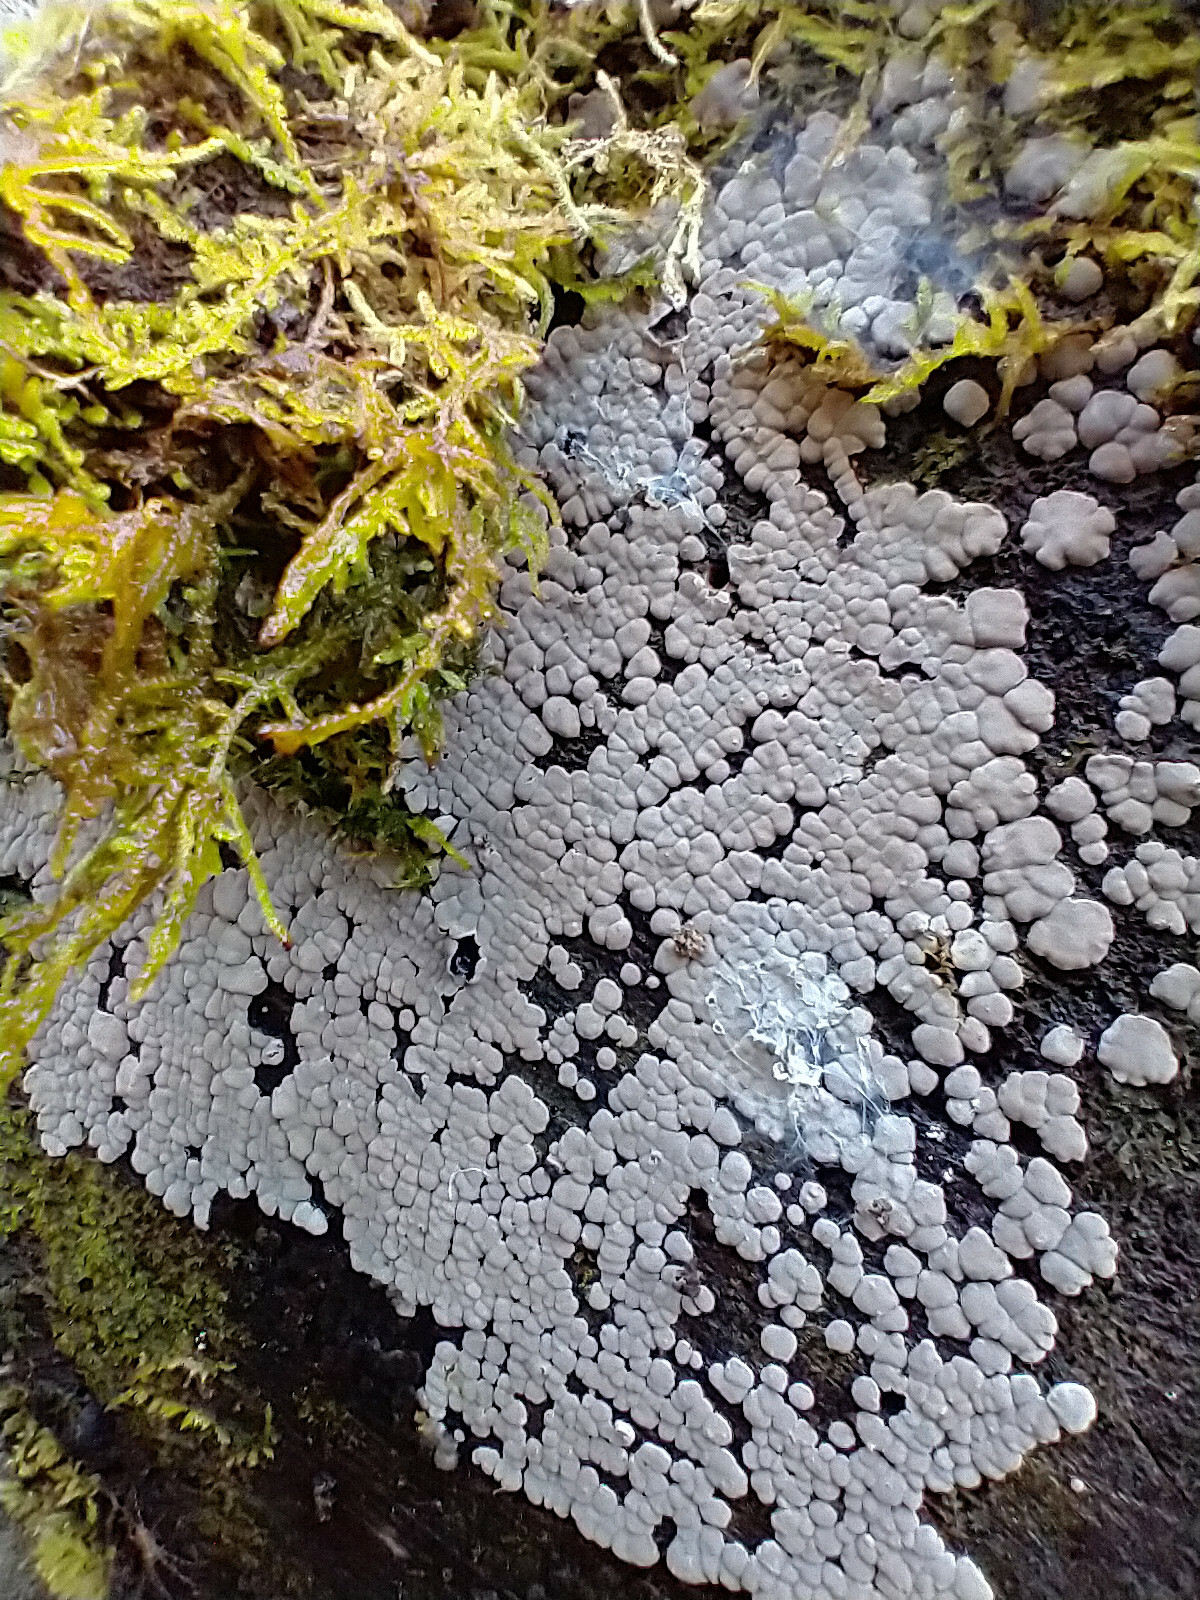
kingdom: Fungi
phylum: Basidiomycota
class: Agaricomycetes
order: Russulales
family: Stereaceae
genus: Xylobolus
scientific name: Xylobolus frustulatus
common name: Ceramic parchment
